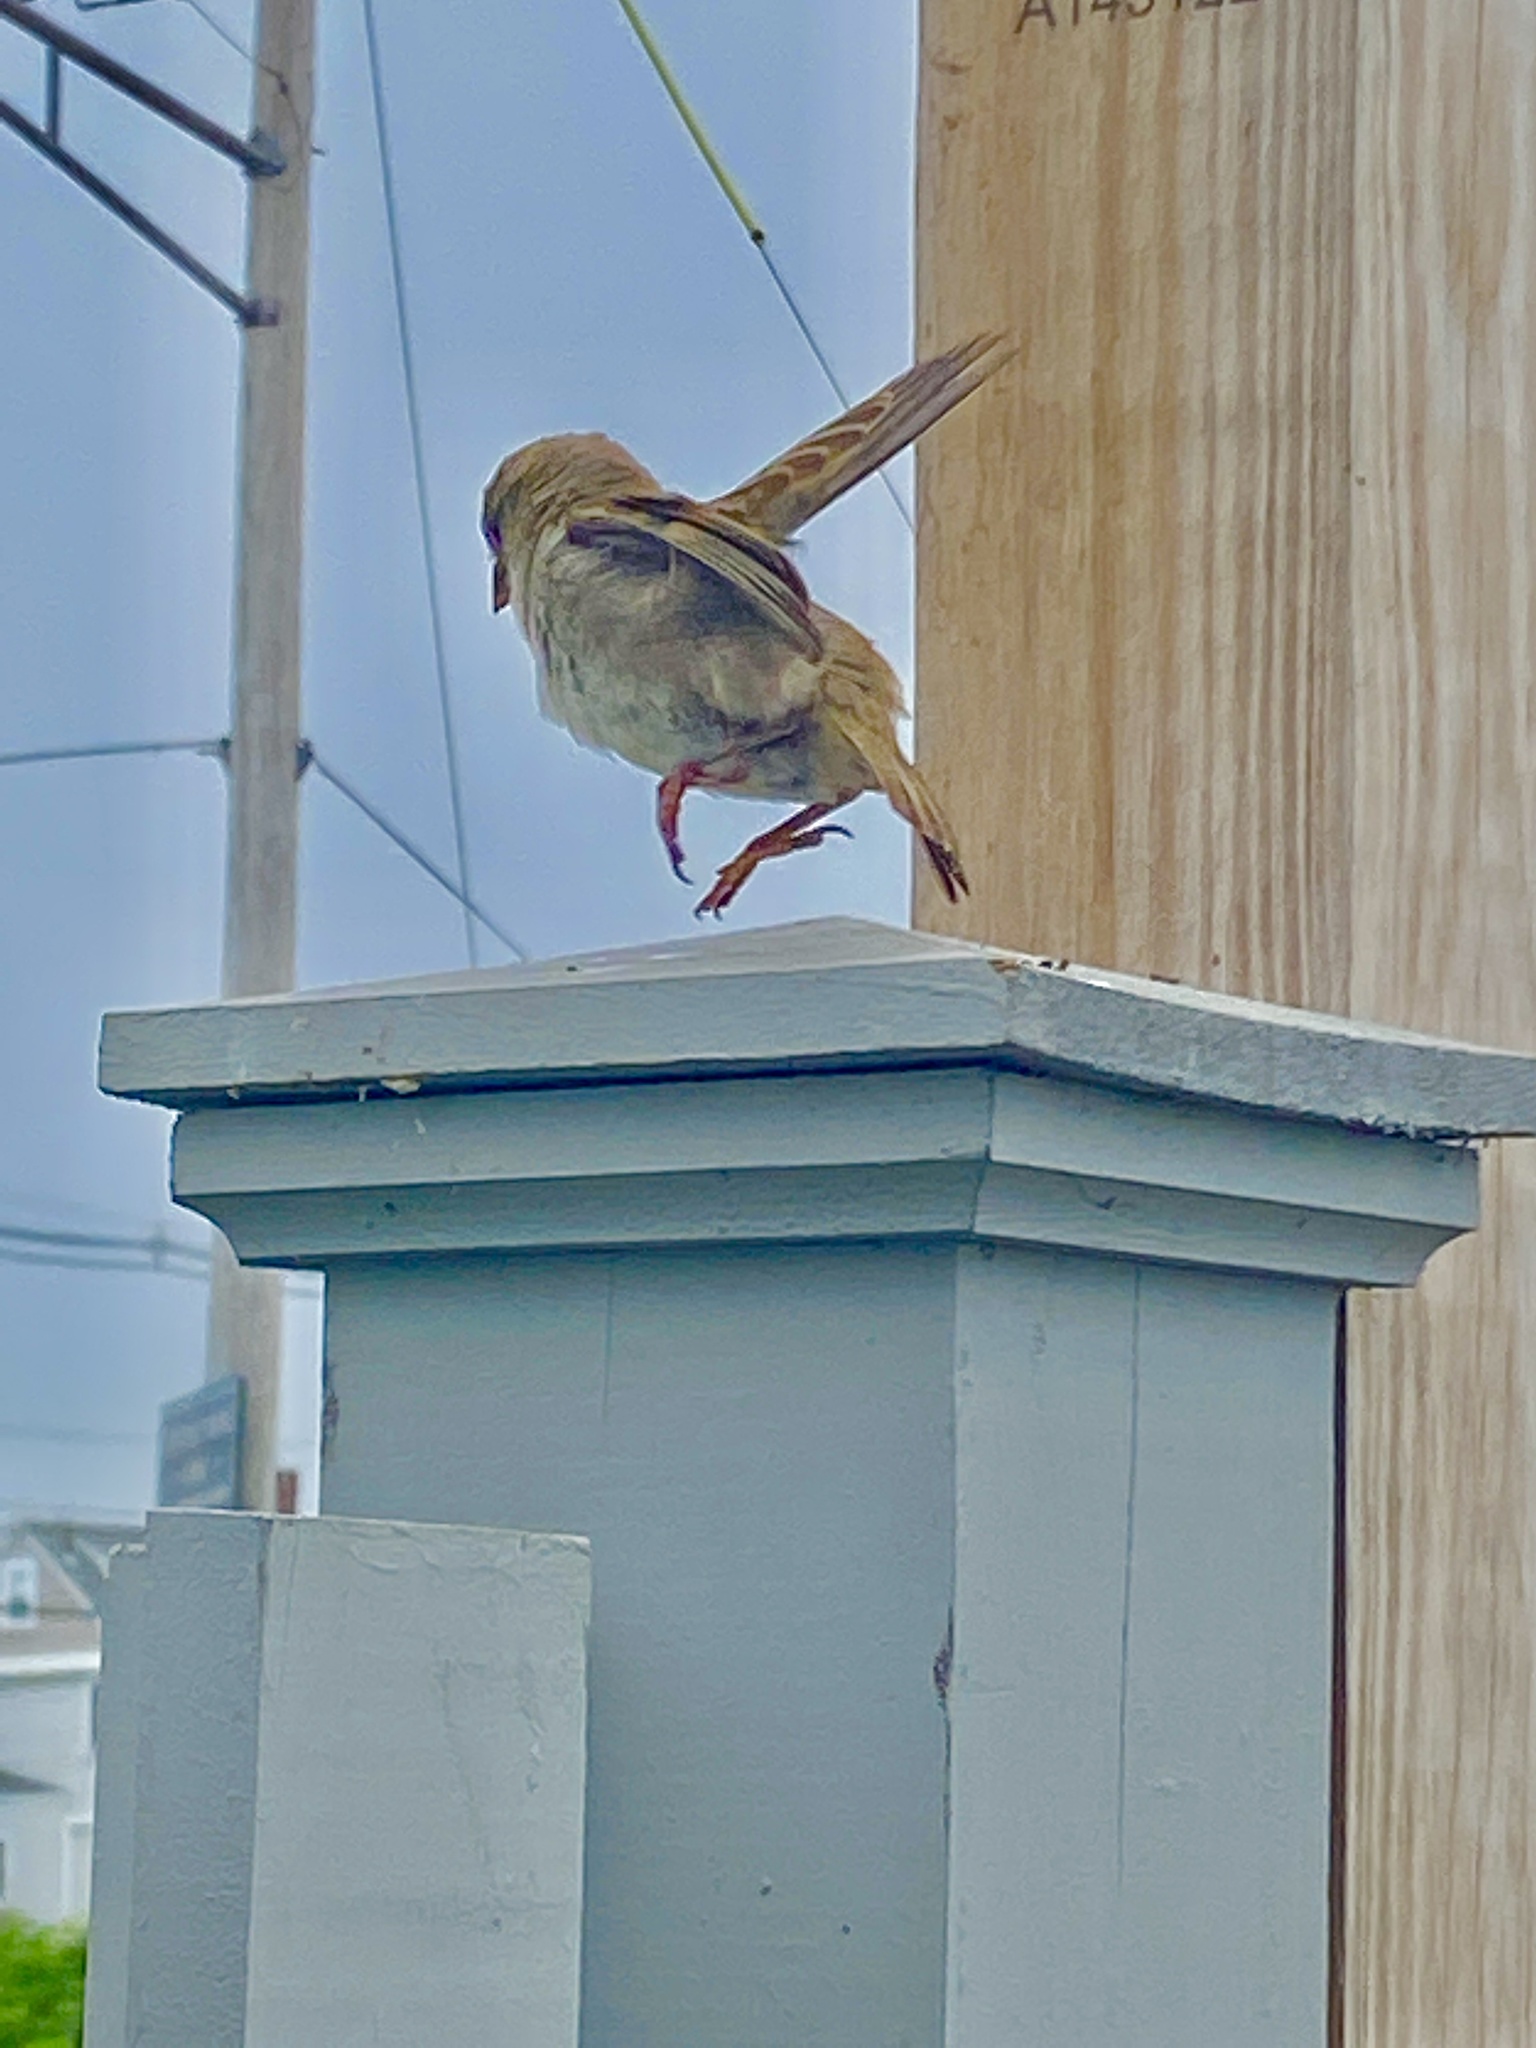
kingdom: Animalia
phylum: Chordata
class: Aves
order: Passeriformes
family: Passeridae
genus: Passer
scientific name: Passer domesticus
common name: House sparrow
